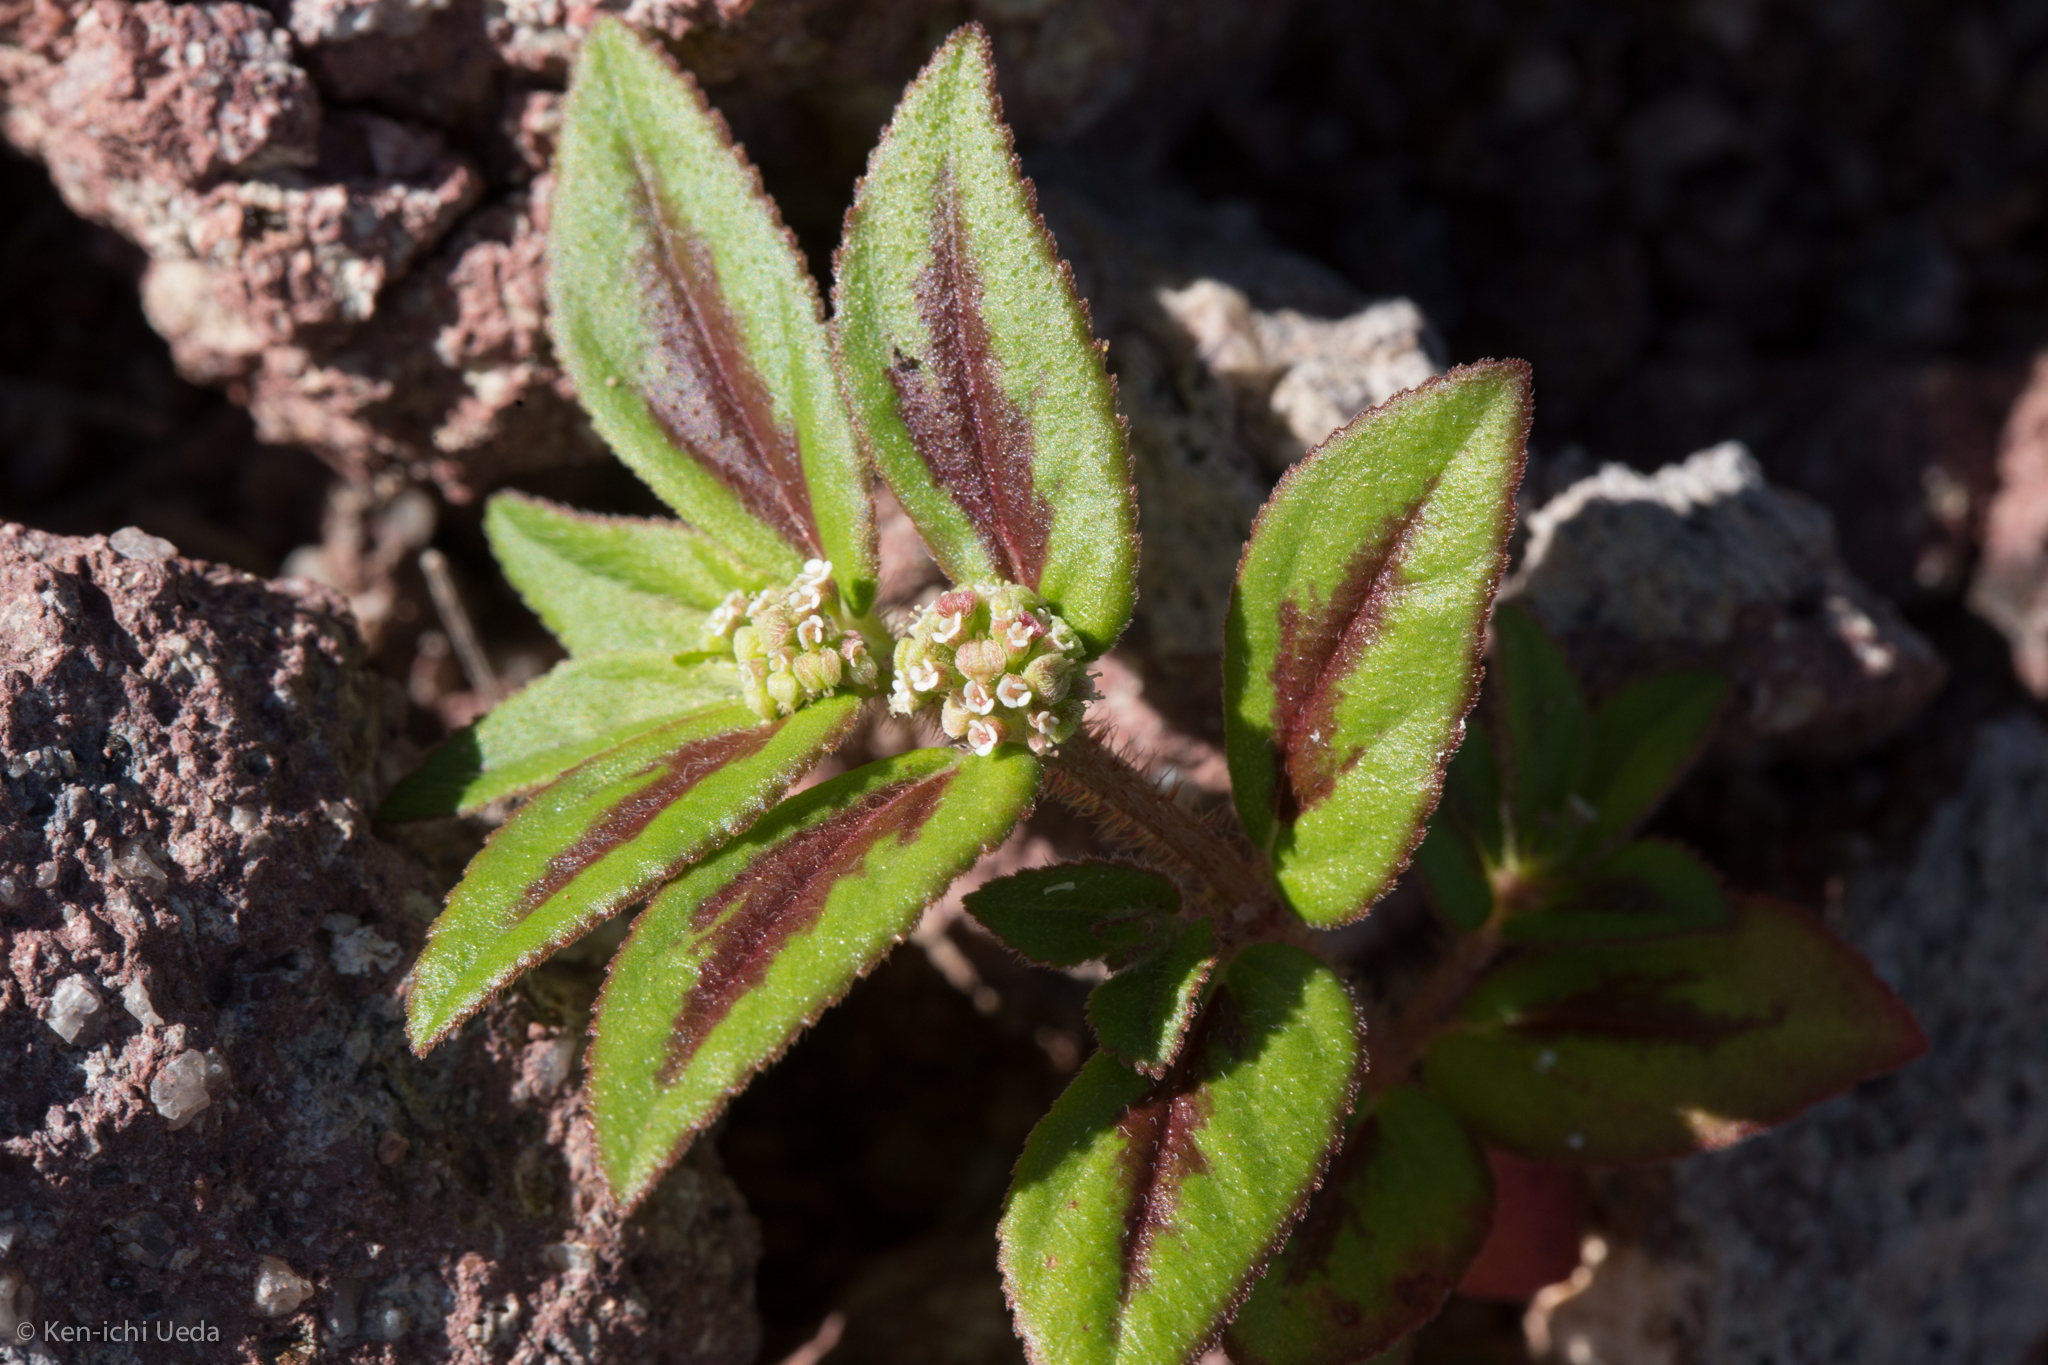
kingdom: Plantae
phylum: Tracheophyta
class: Magnoliopsida
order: Malpighiales
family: Euphorbiaceae
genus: Euphorbia
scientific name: Euphorbia hirta
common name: Pillpod sandmat
